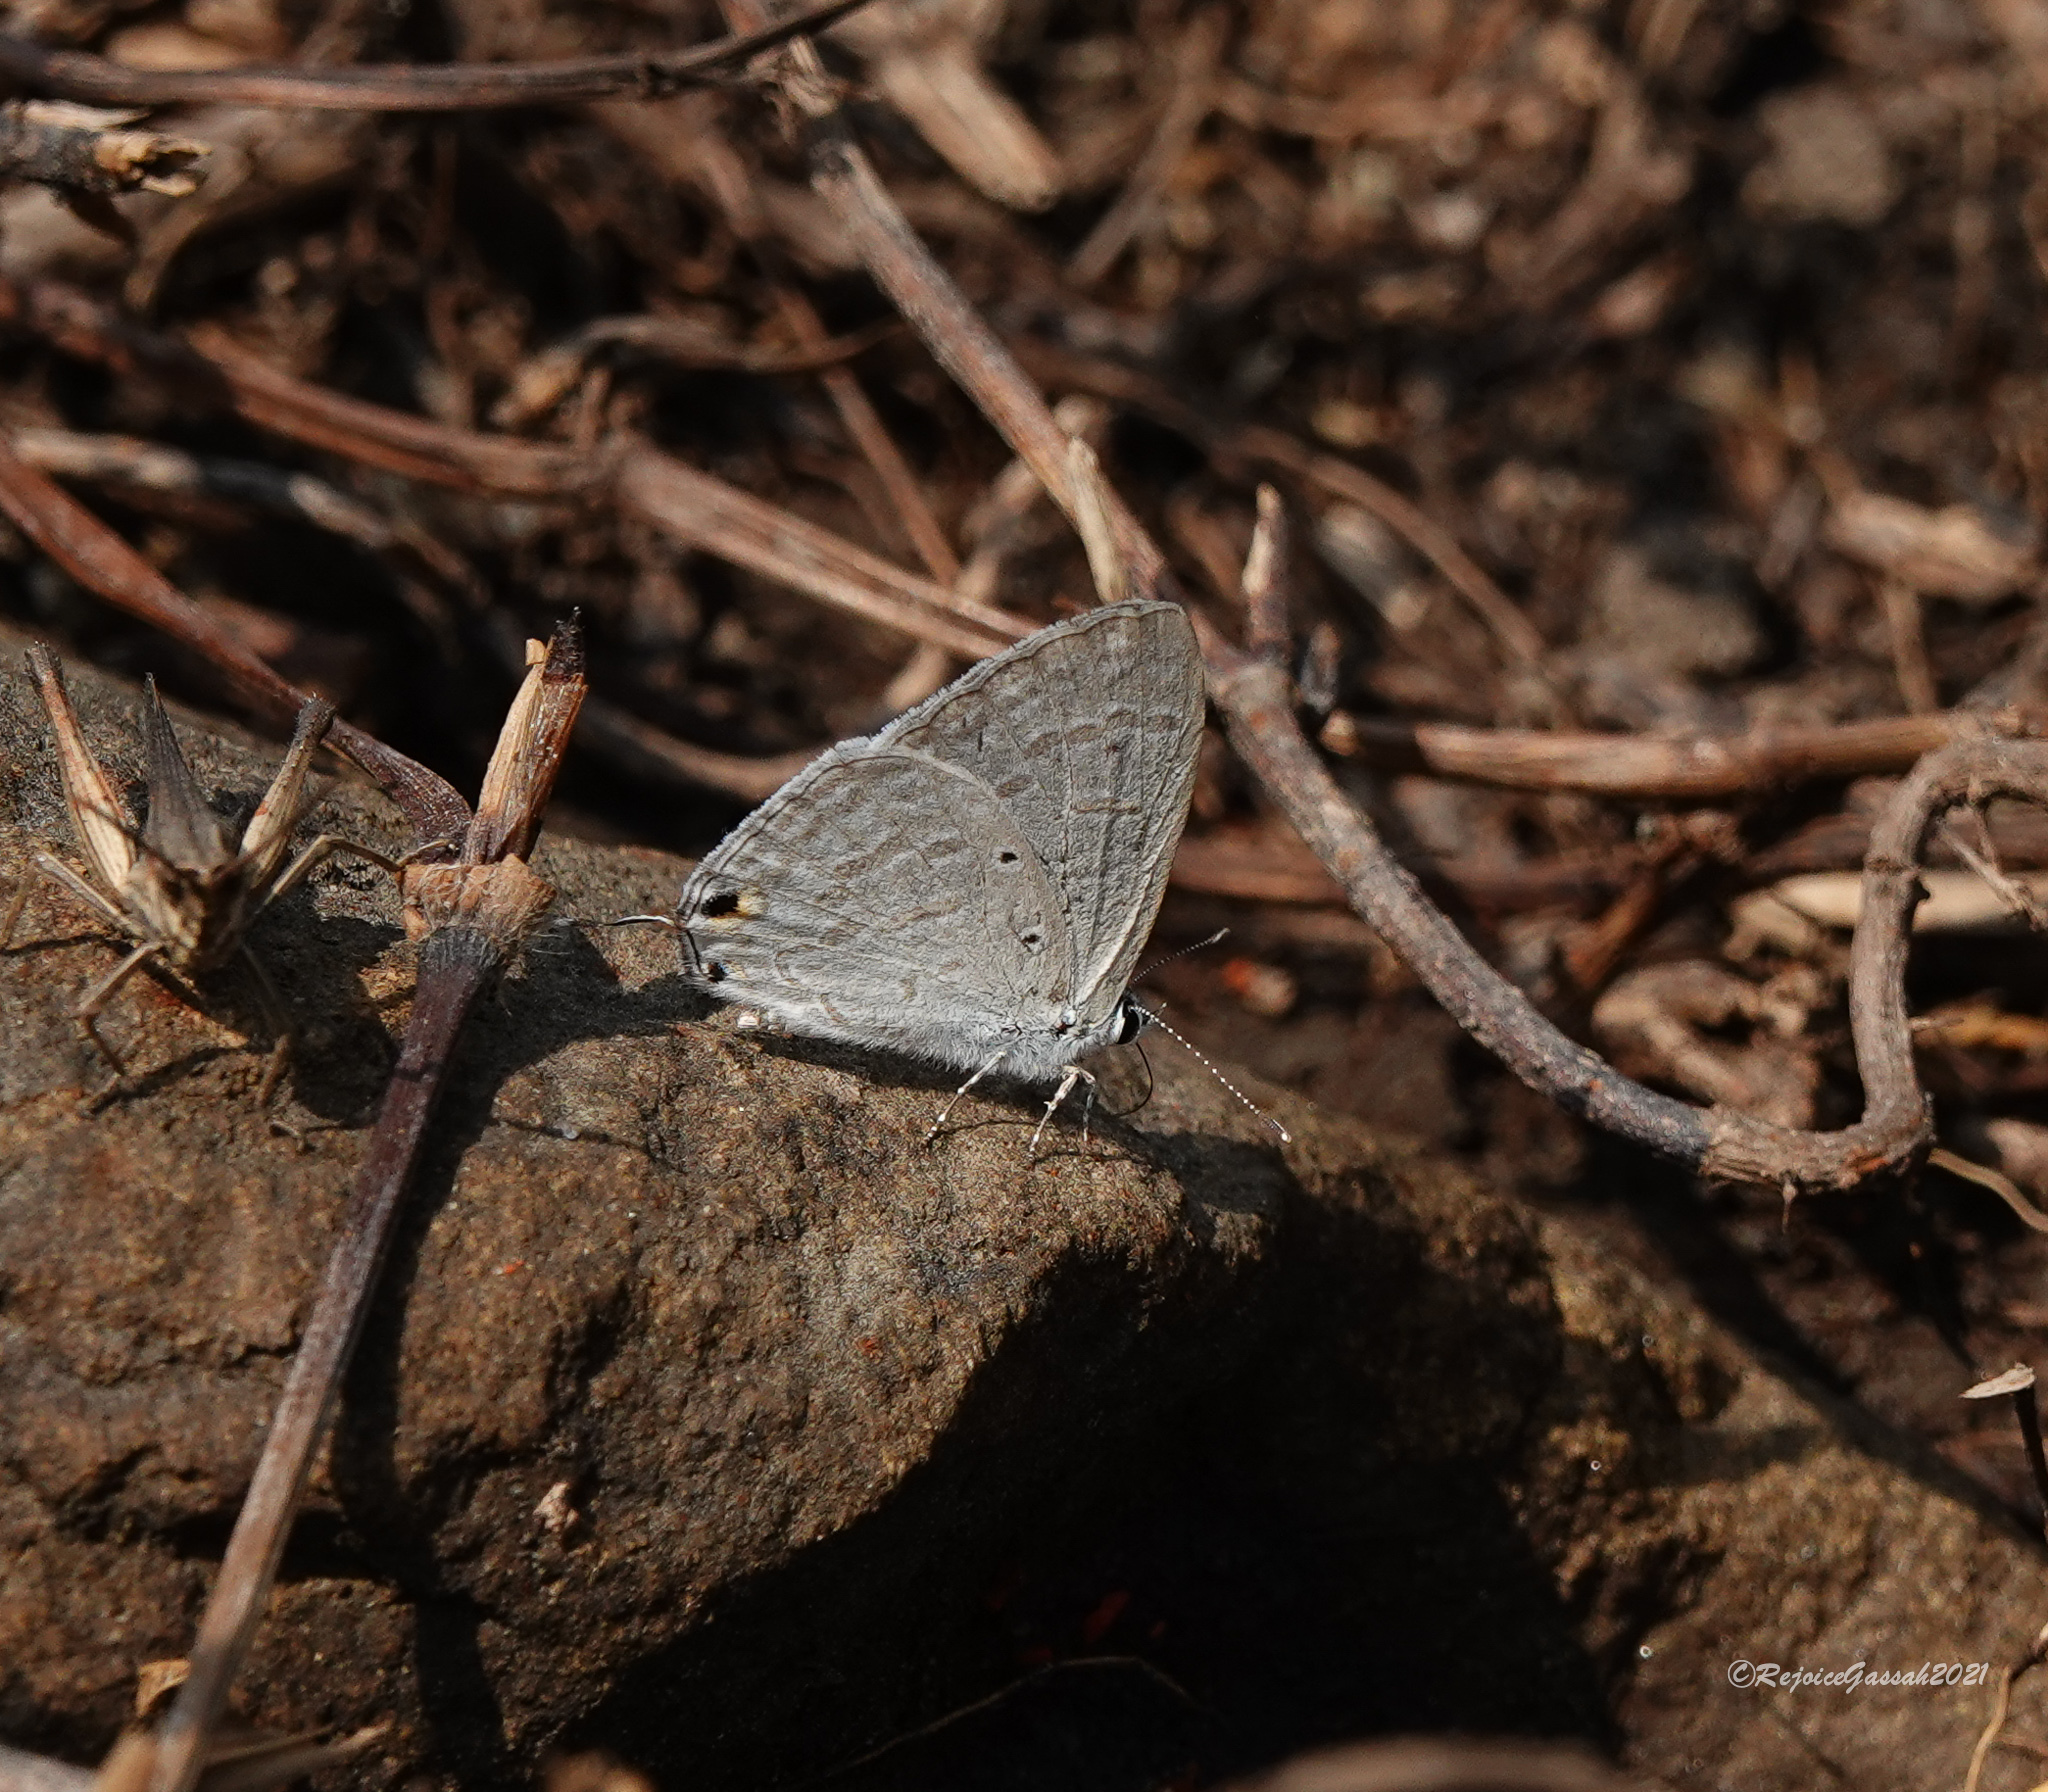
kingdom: Animalia
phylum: Arthropoda
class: Insecta
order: Lepidoptera
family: Lycaenidae
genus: Catochrysops
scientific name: Catochrysops strabo
